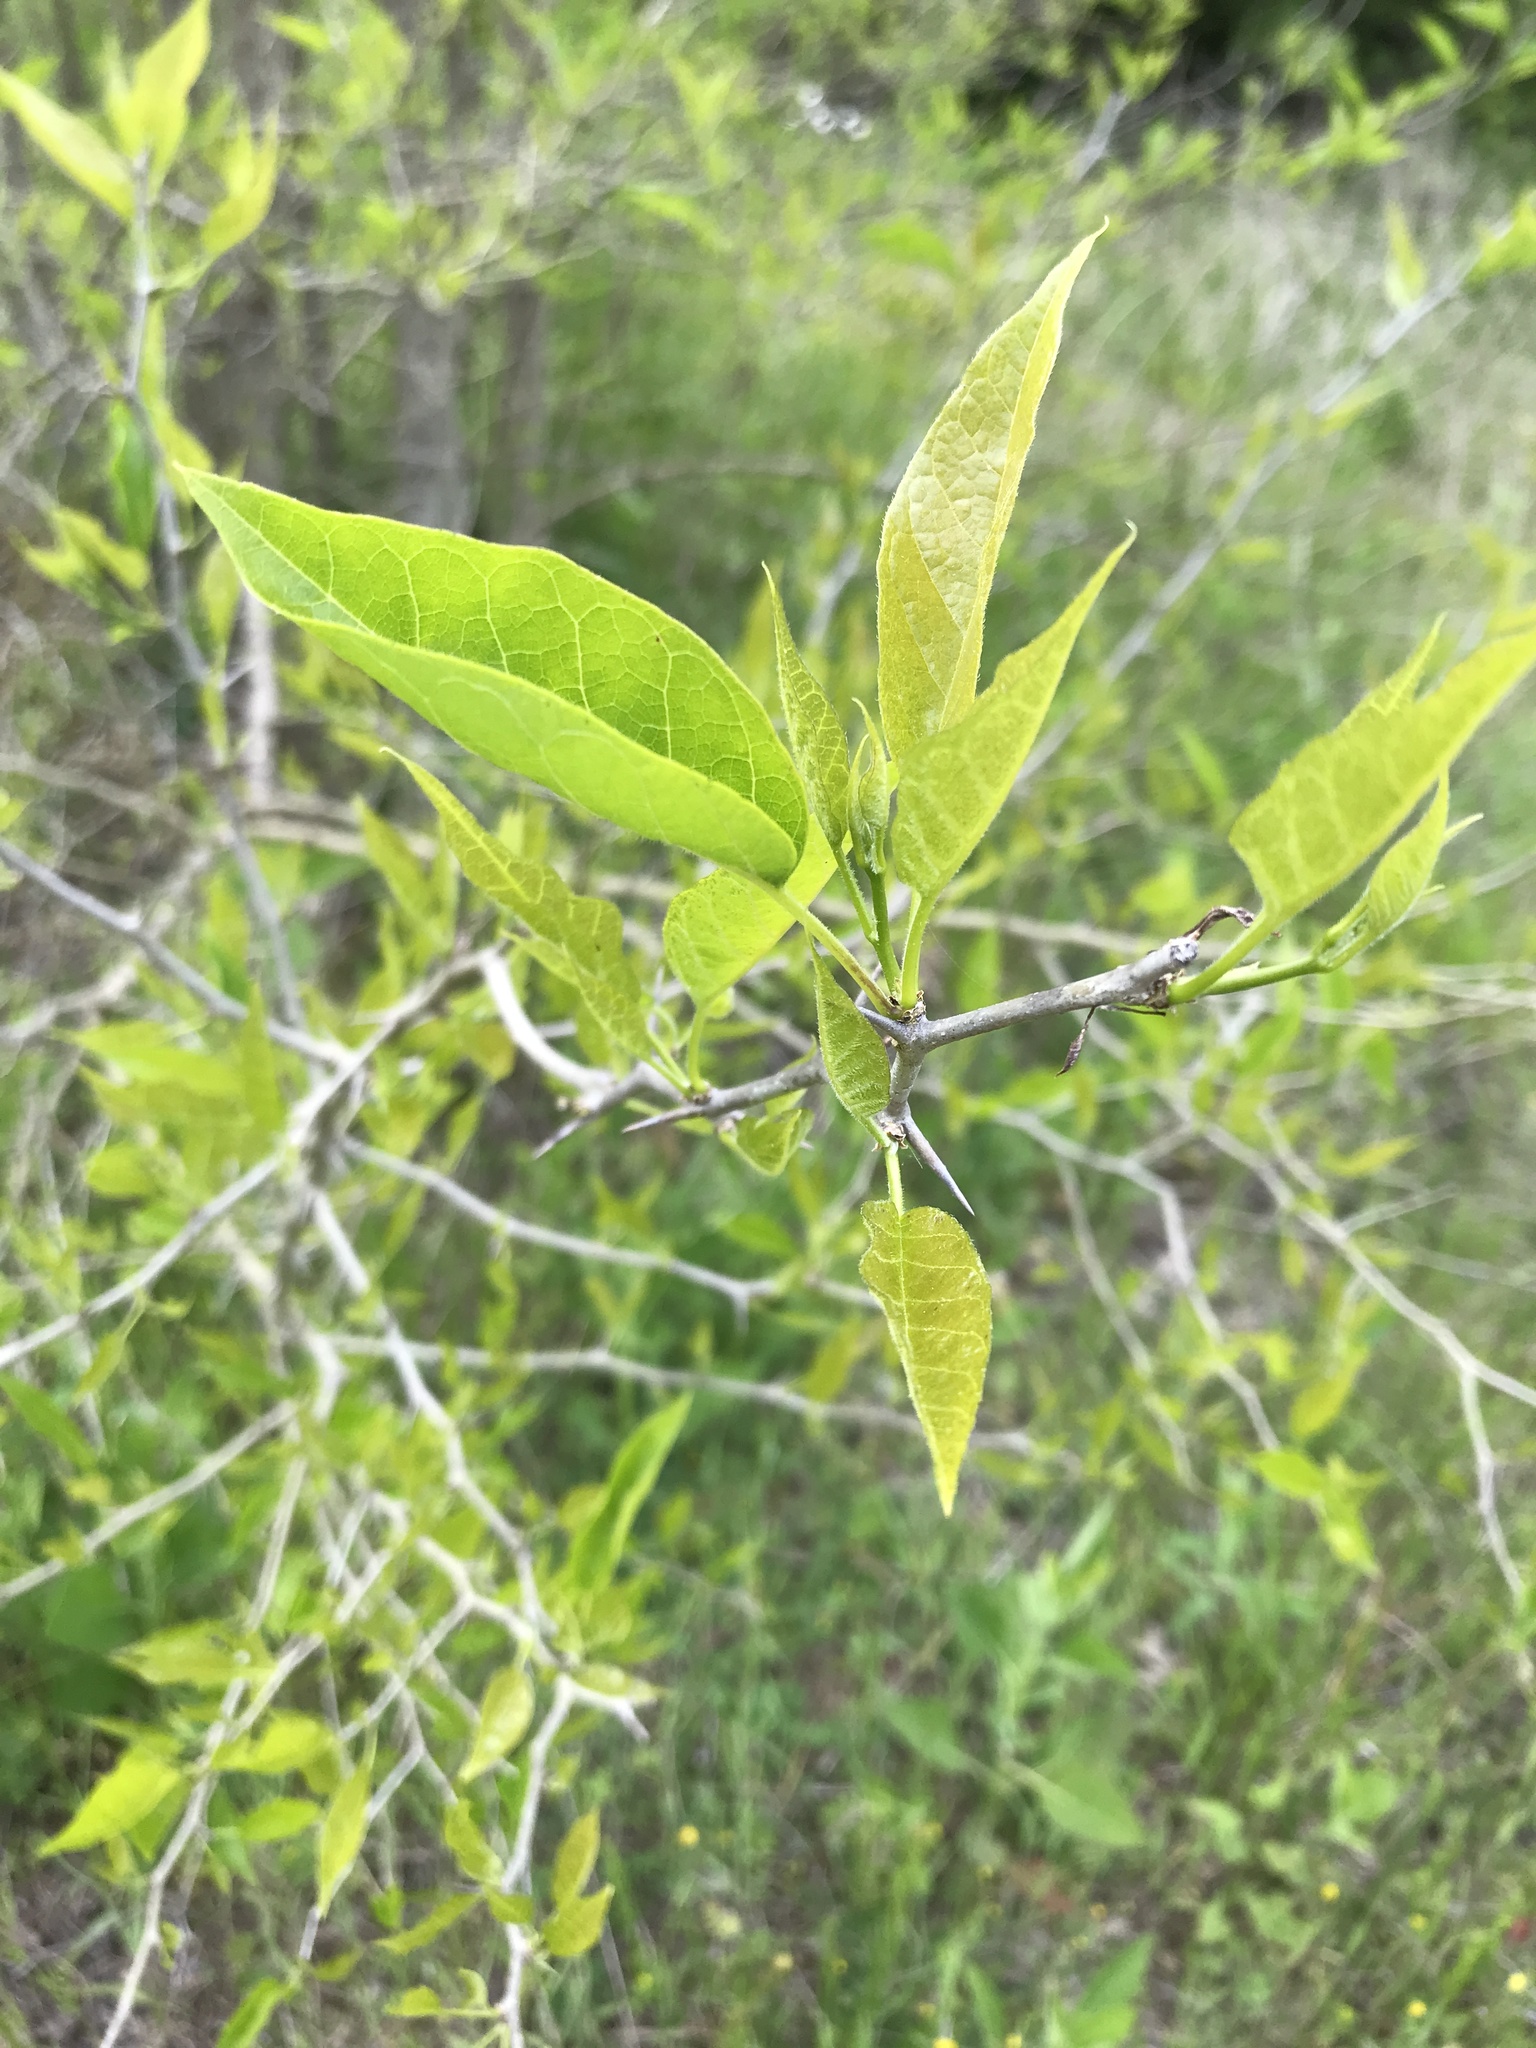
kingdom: Plantae
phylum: Tracheophyta
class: Magnoliopsida
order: Rosales
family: Moraceae
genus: Maclura
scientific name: Maclura pomifera
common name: Osage-orange
